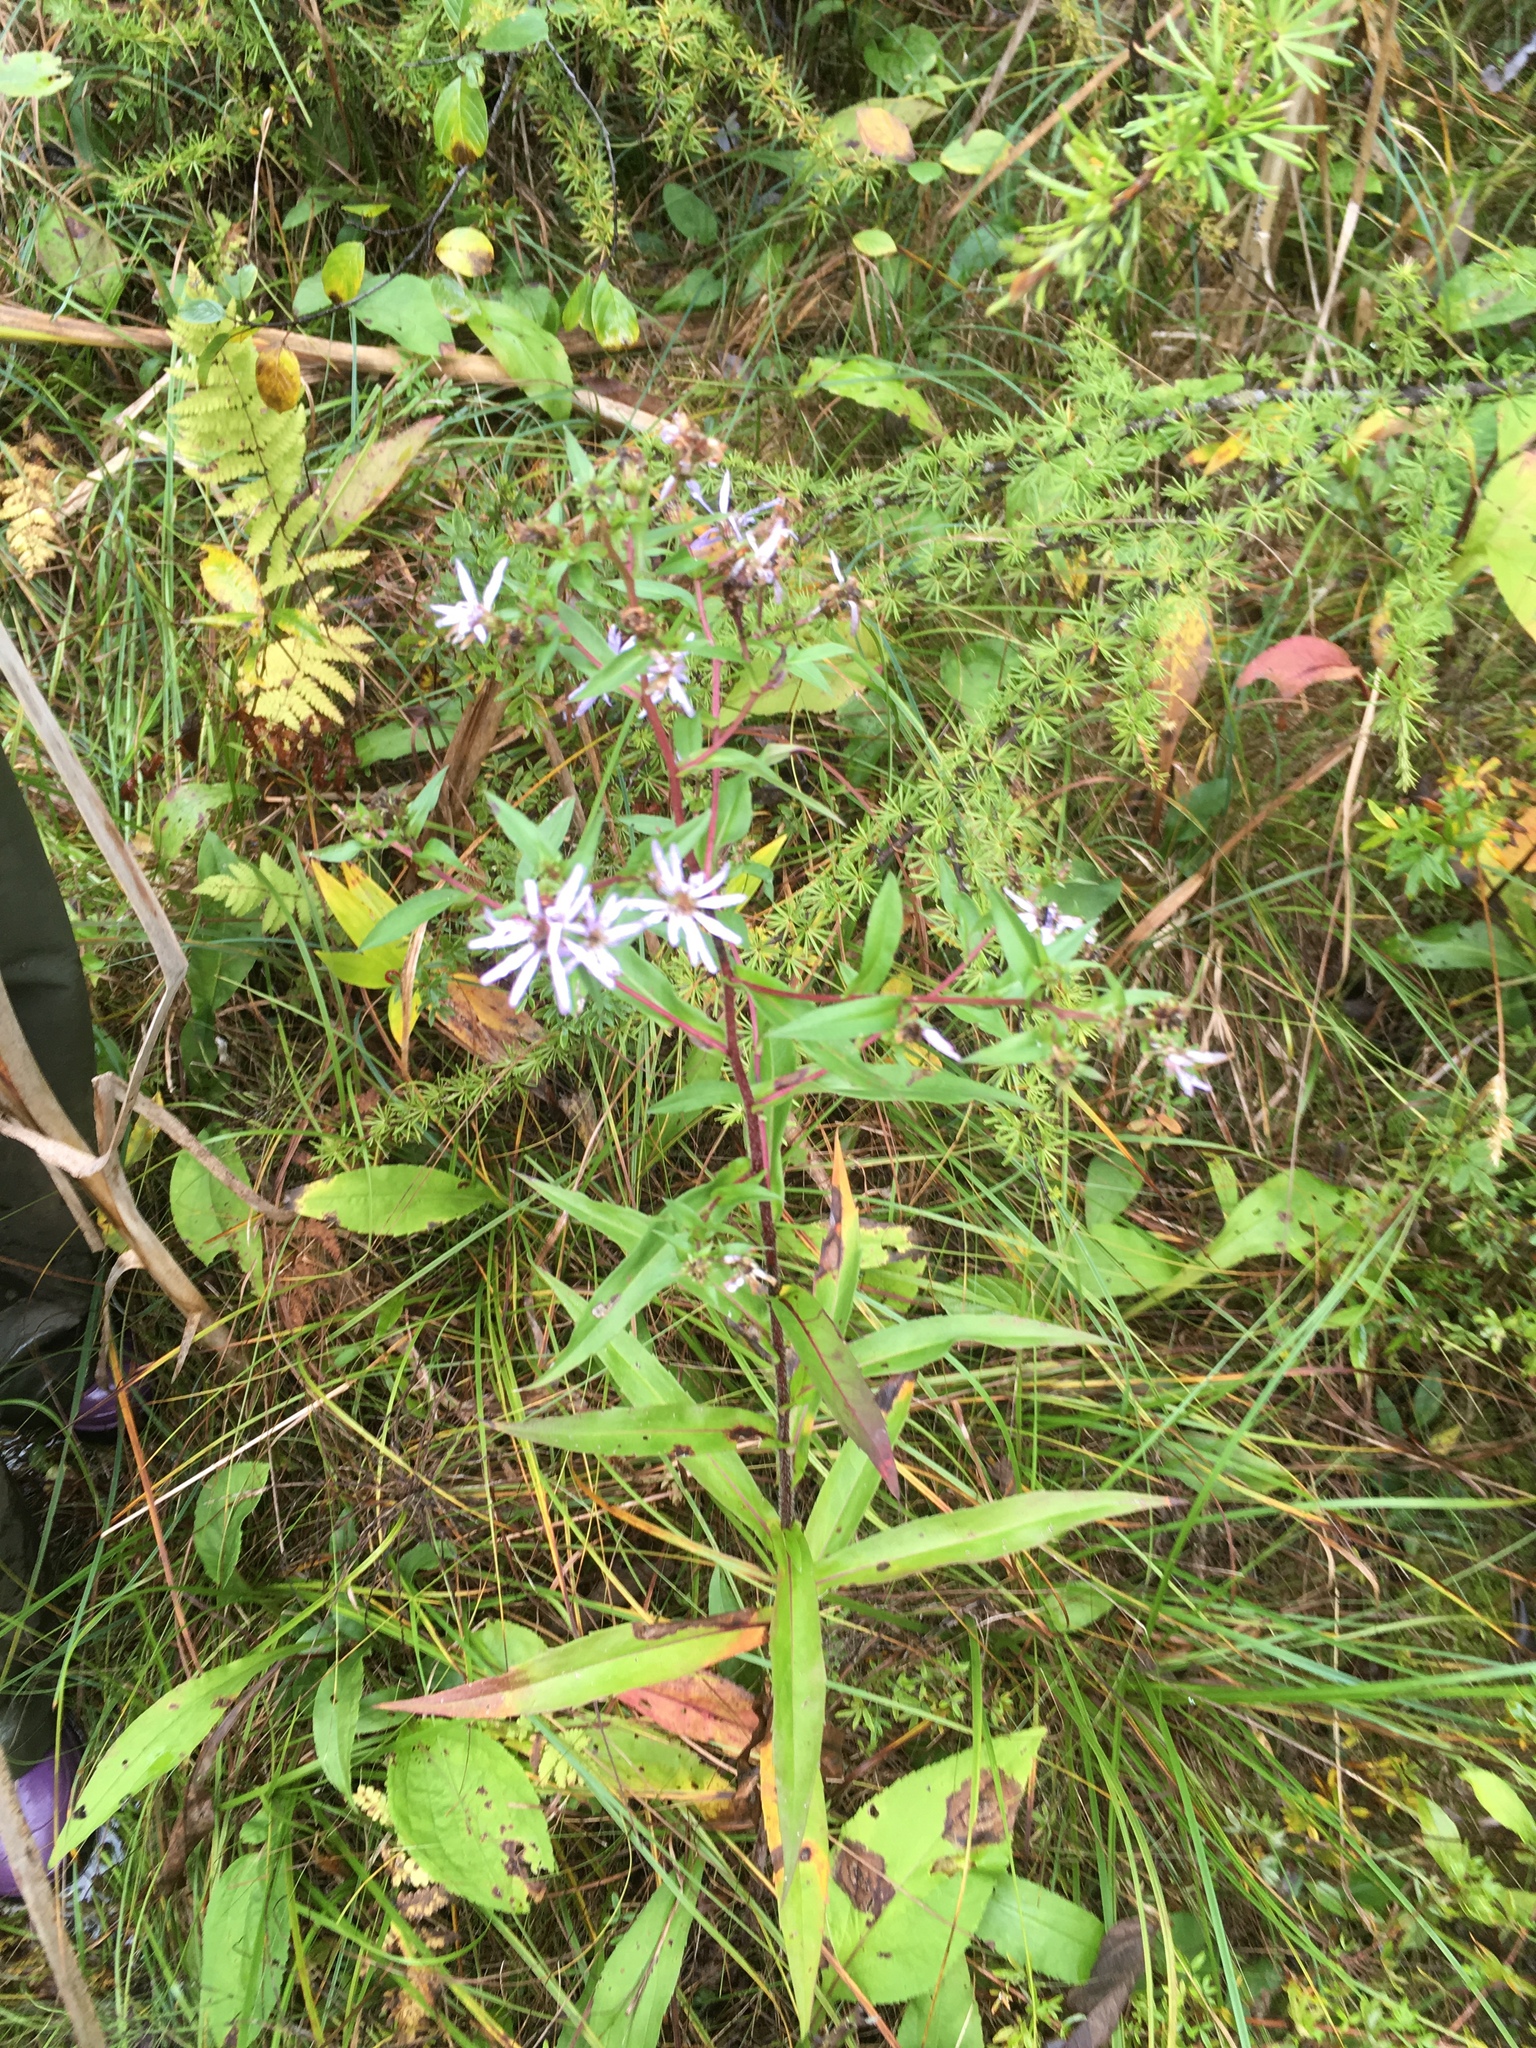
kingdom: Plantae
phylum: Tracheophyta
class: Magnoliopsida
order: Asterales
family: Asteraceae
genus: Symphyotrichum
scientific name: Symphyotrichum puniceum
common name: Bog aster
